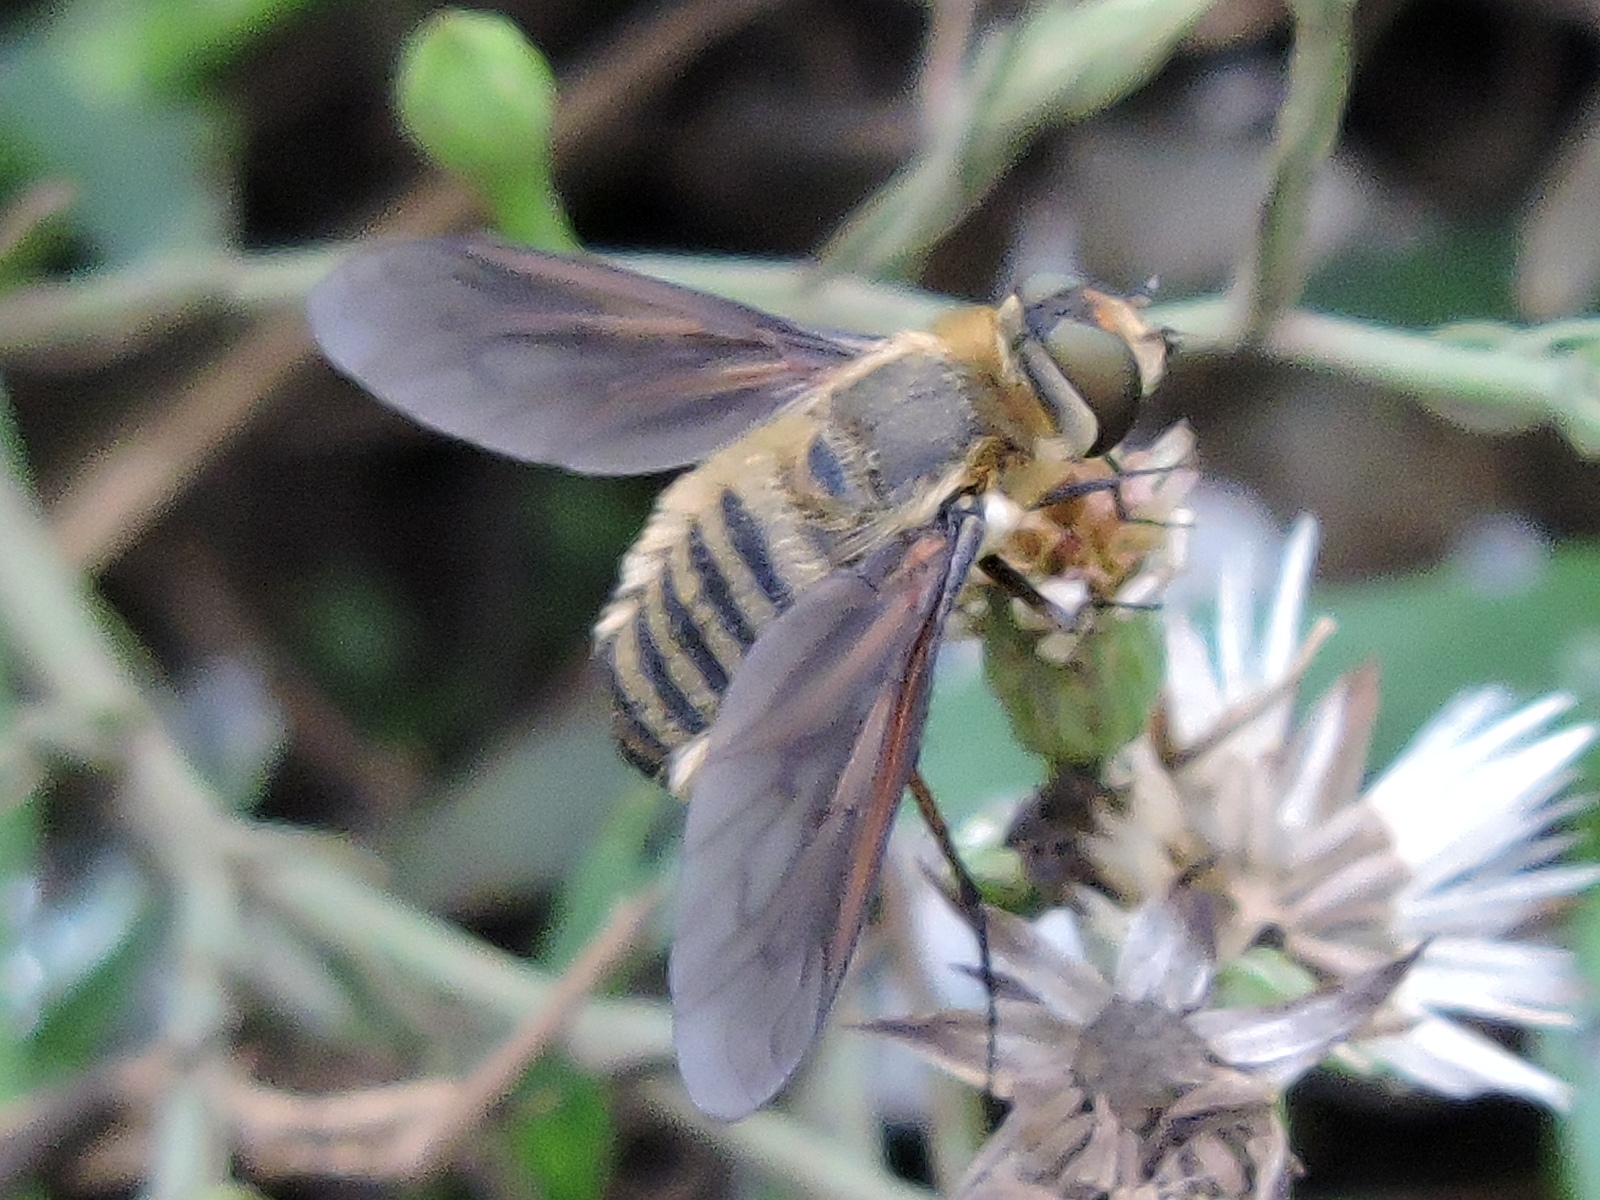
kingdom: Animalia
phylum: Arthropoda
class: Insecta
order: Diptera
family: Bombyliidae
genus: Poecilanthrax
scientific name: Poecilanthrax lucifer
